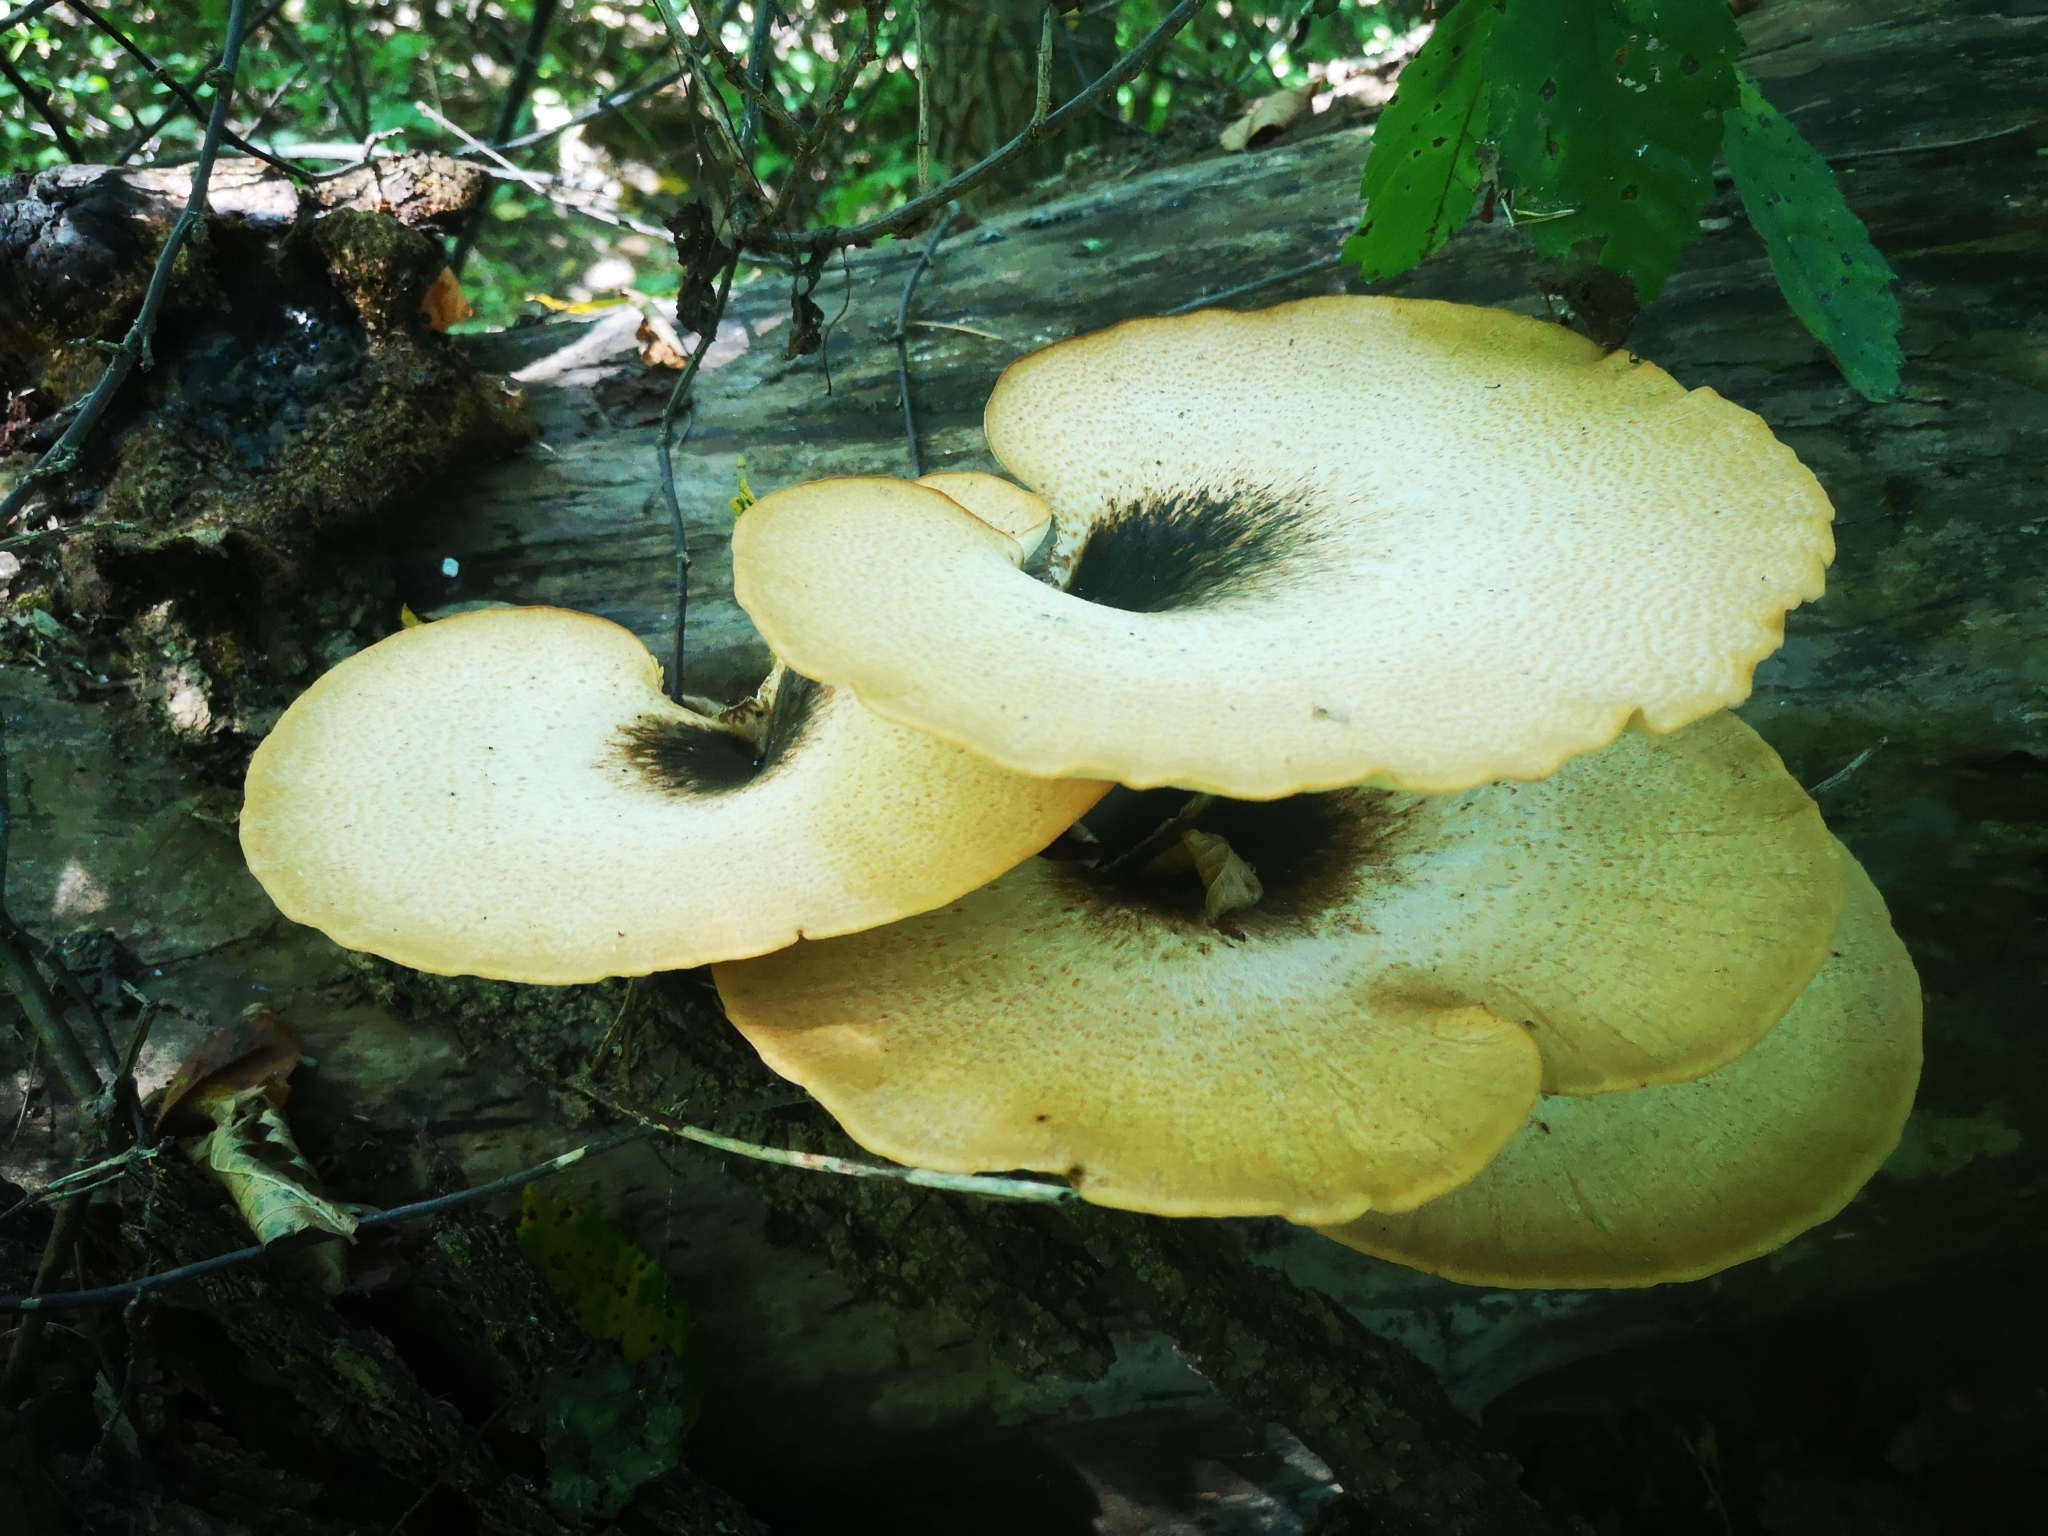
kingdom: Fungi
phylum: Basidiomycota
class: Agaricomycetes
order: Polyporales
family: Polyporaceae
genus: Cerioporus
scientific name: Cerioporus squamosus
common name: Dryad's saddle
